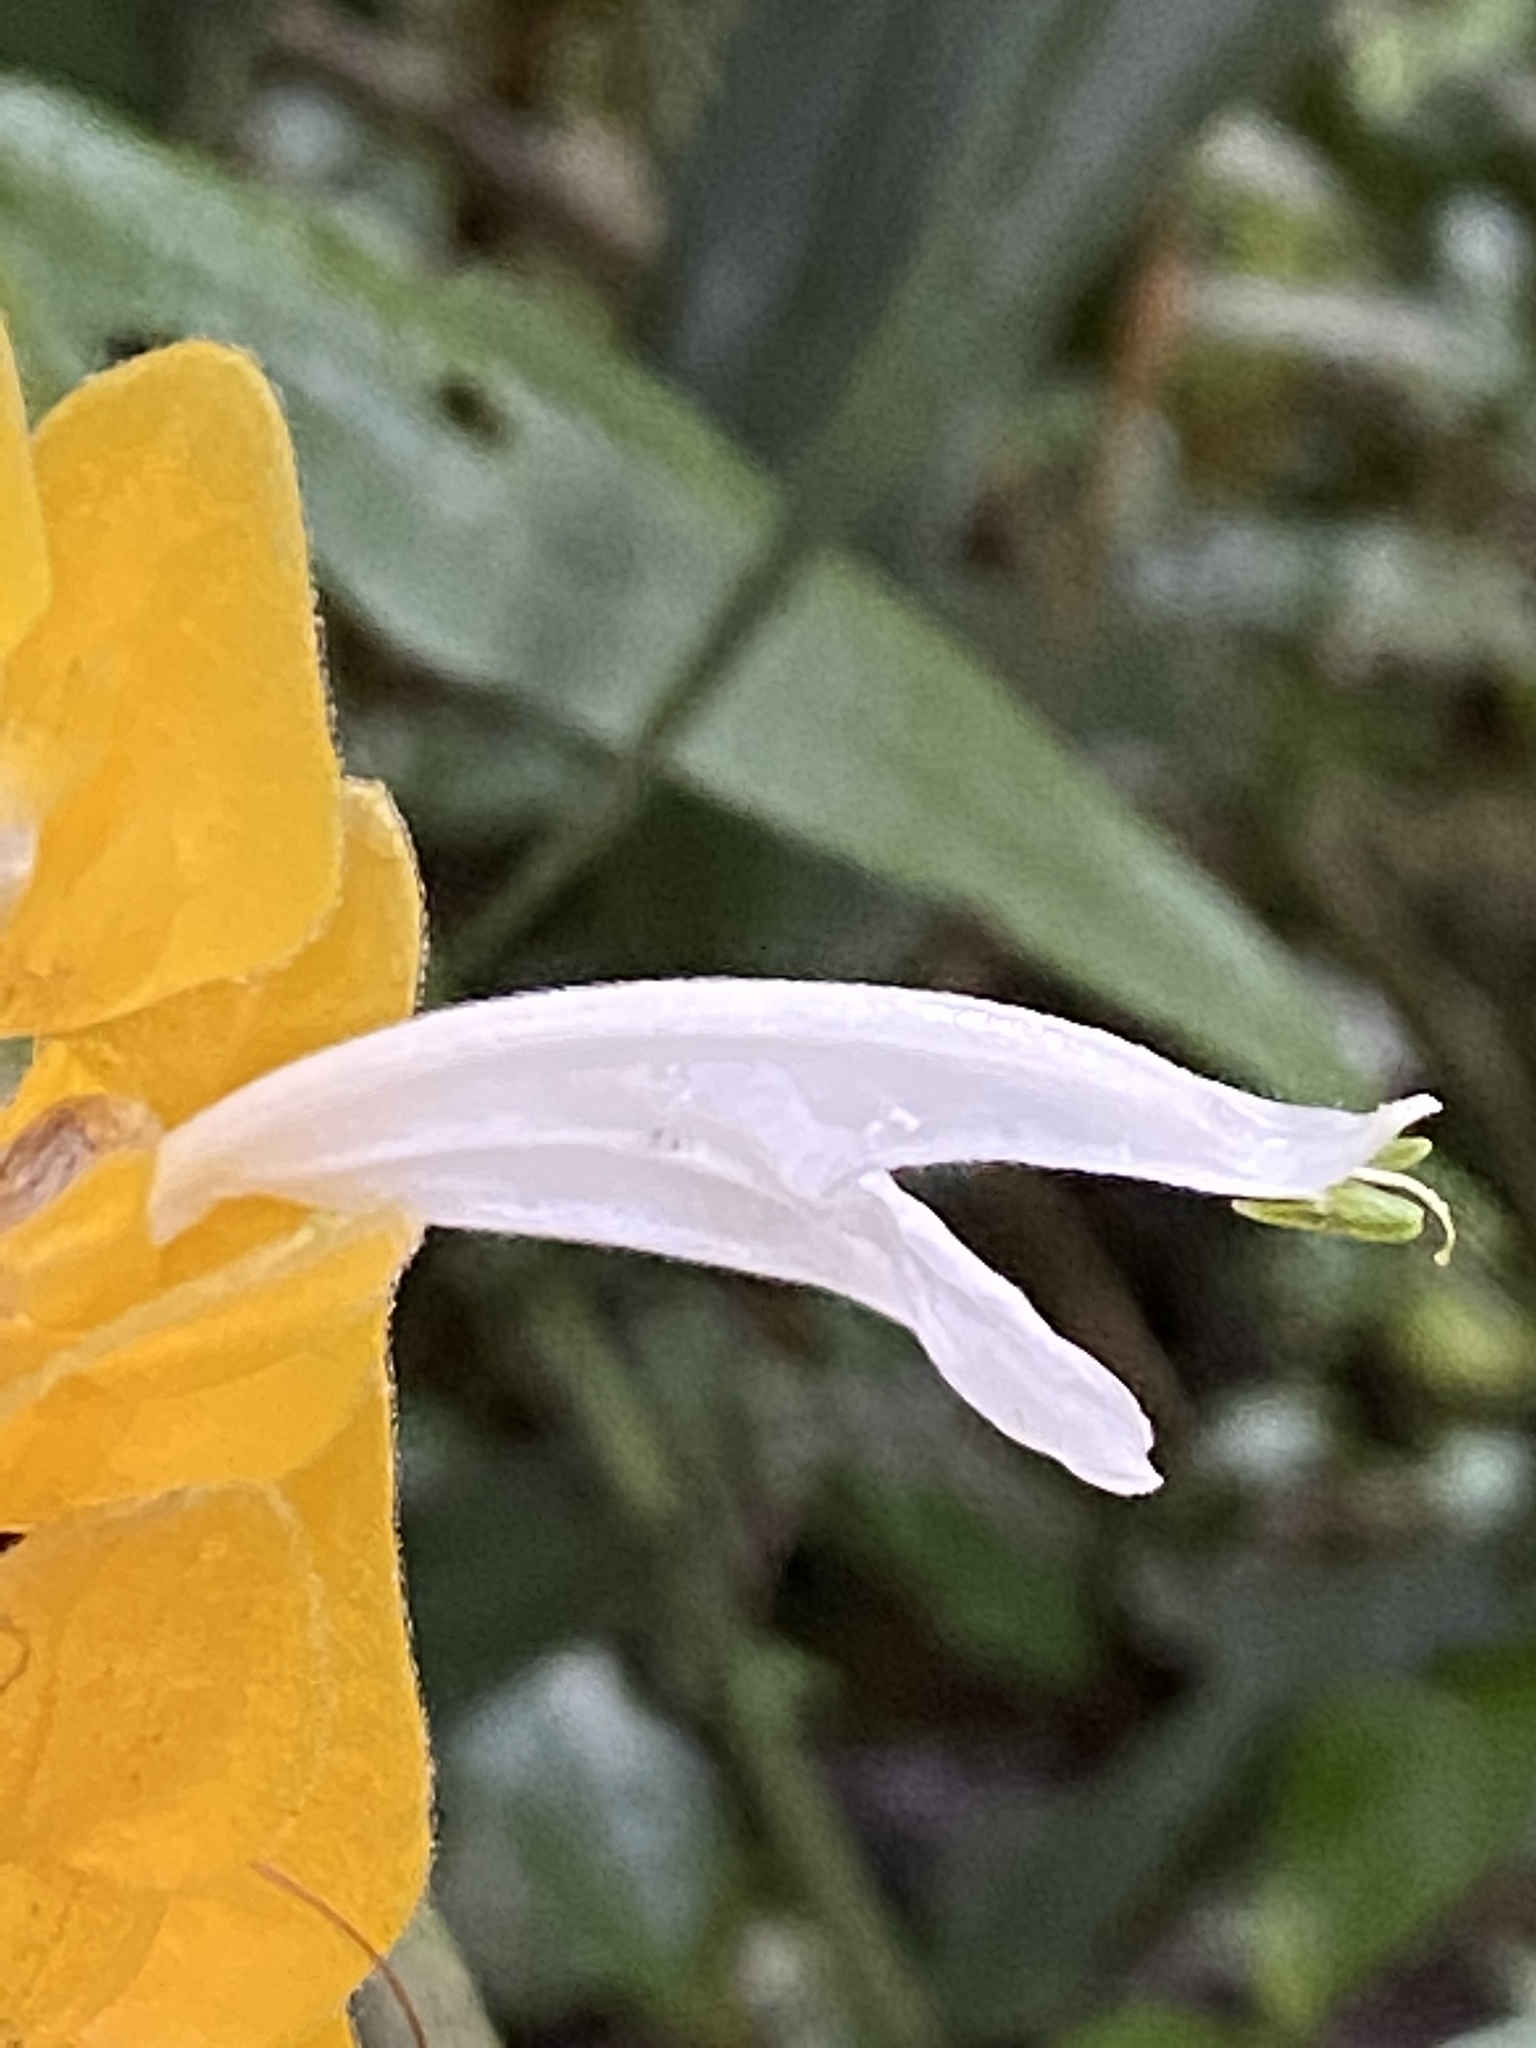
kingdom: Plantae
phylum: Tracheophyta
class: Magnoliopsida
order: Lamiales
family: Acanthaceae
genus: Pachystachys
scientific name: Pachystachys lutea
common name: Golden shrimp-plant
